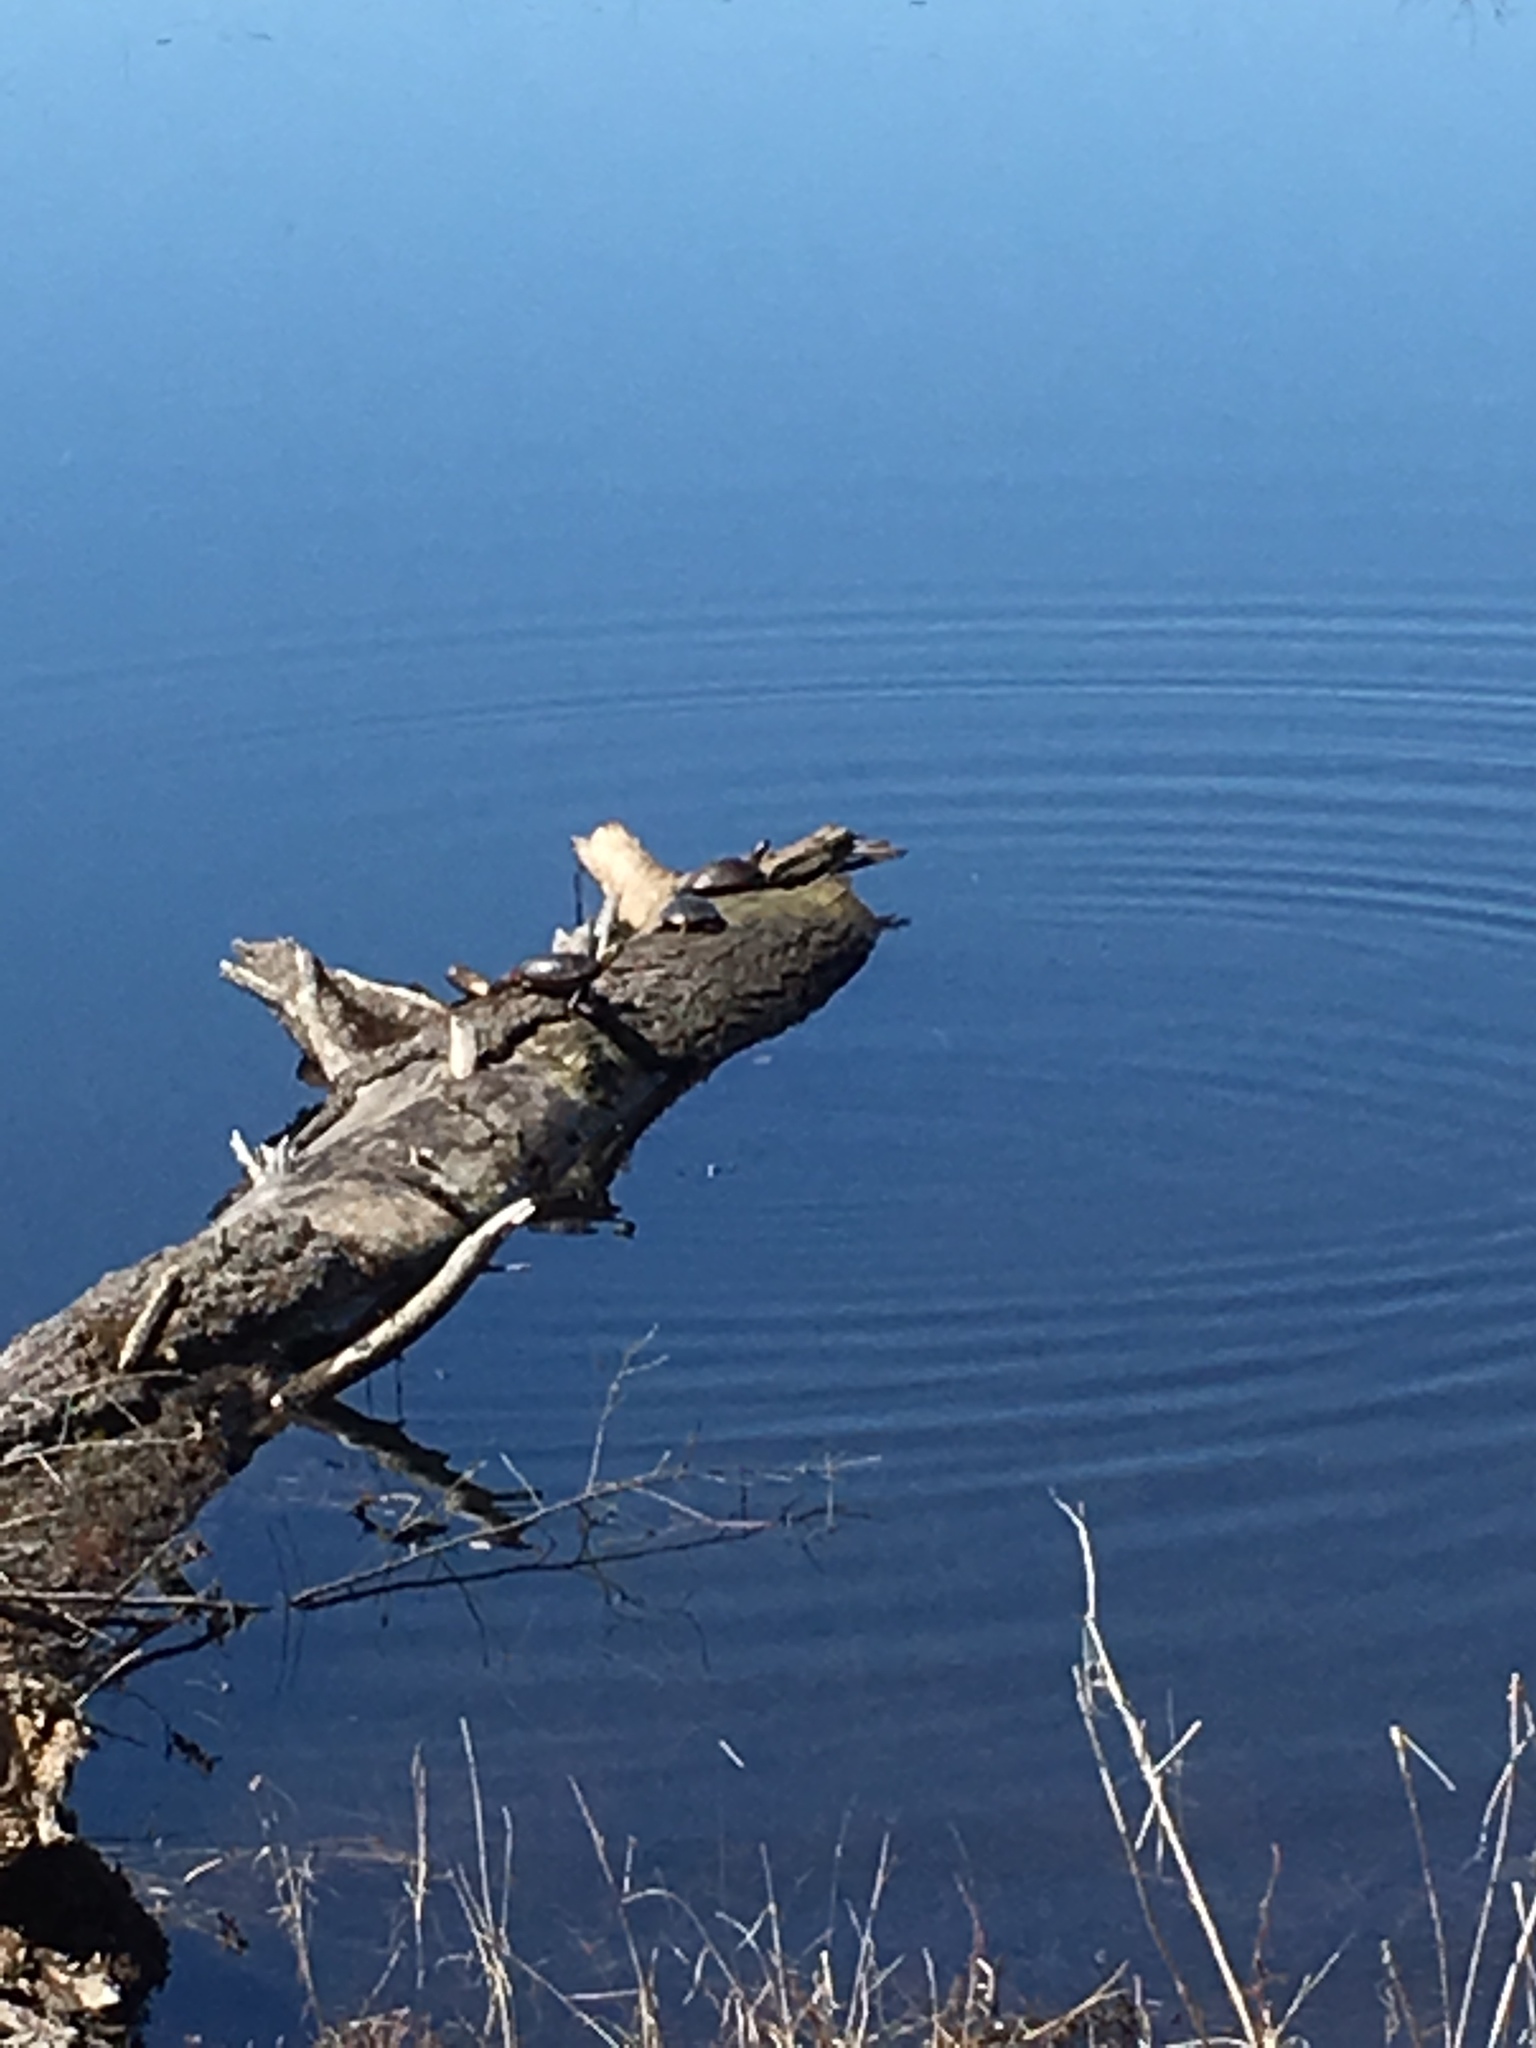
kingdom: Animalia
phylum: Chordata
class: Testudines
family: Emydidae
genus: Chrysemys
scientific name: Chrysemys picta
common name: Painted turtle
